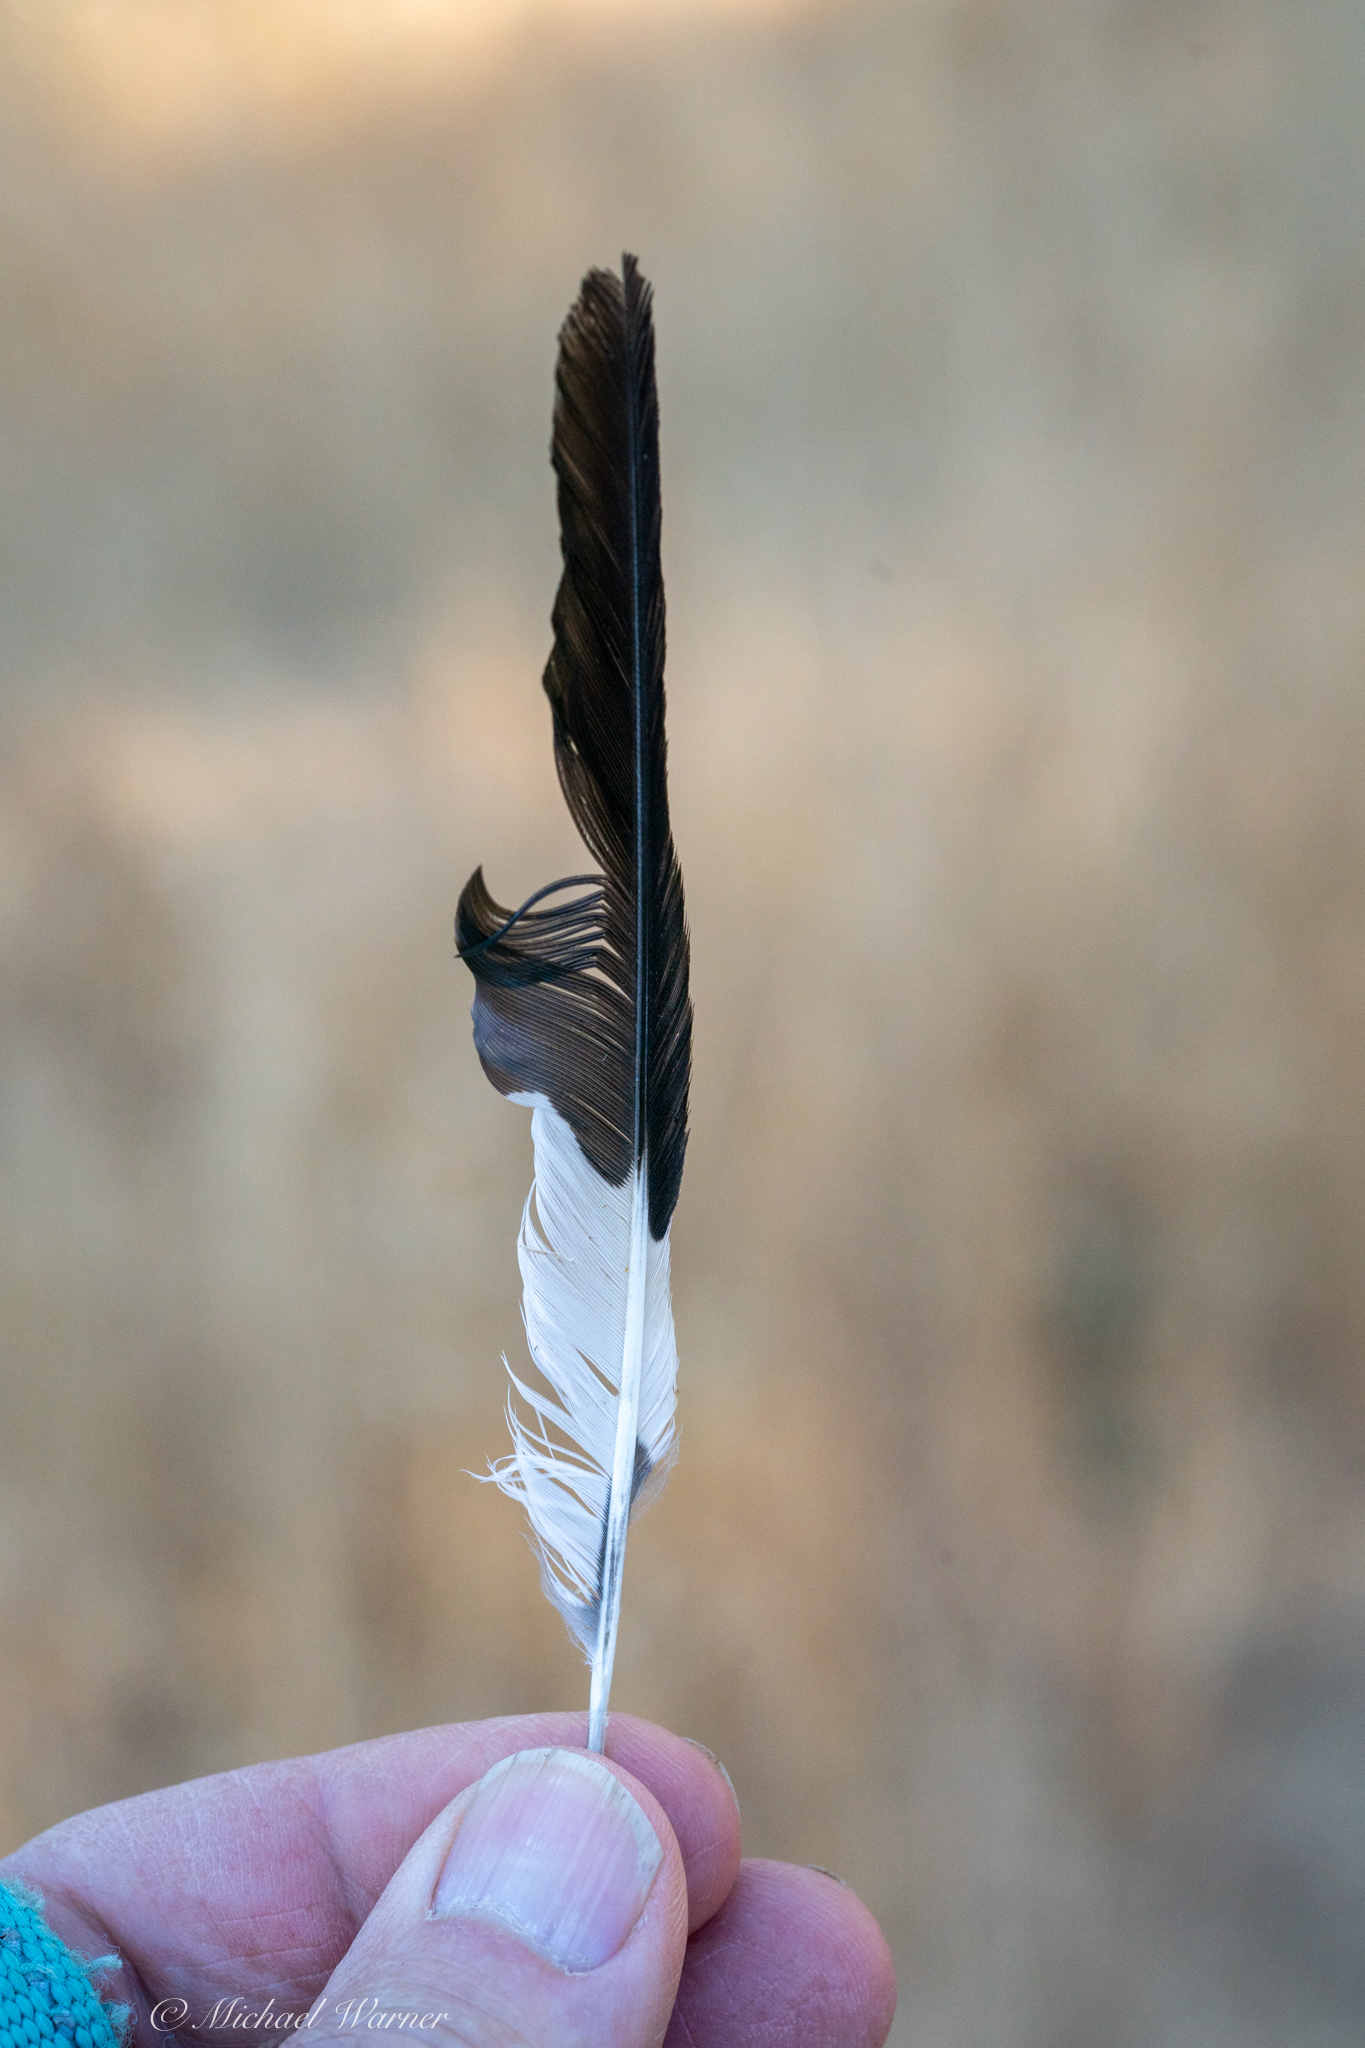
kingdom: Animalia
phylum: Chordata
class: Aves
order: Piciformes
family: Picidae
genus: Melanerpes
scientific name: Melanerpes formicivorus
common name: Acorn woodpecker
